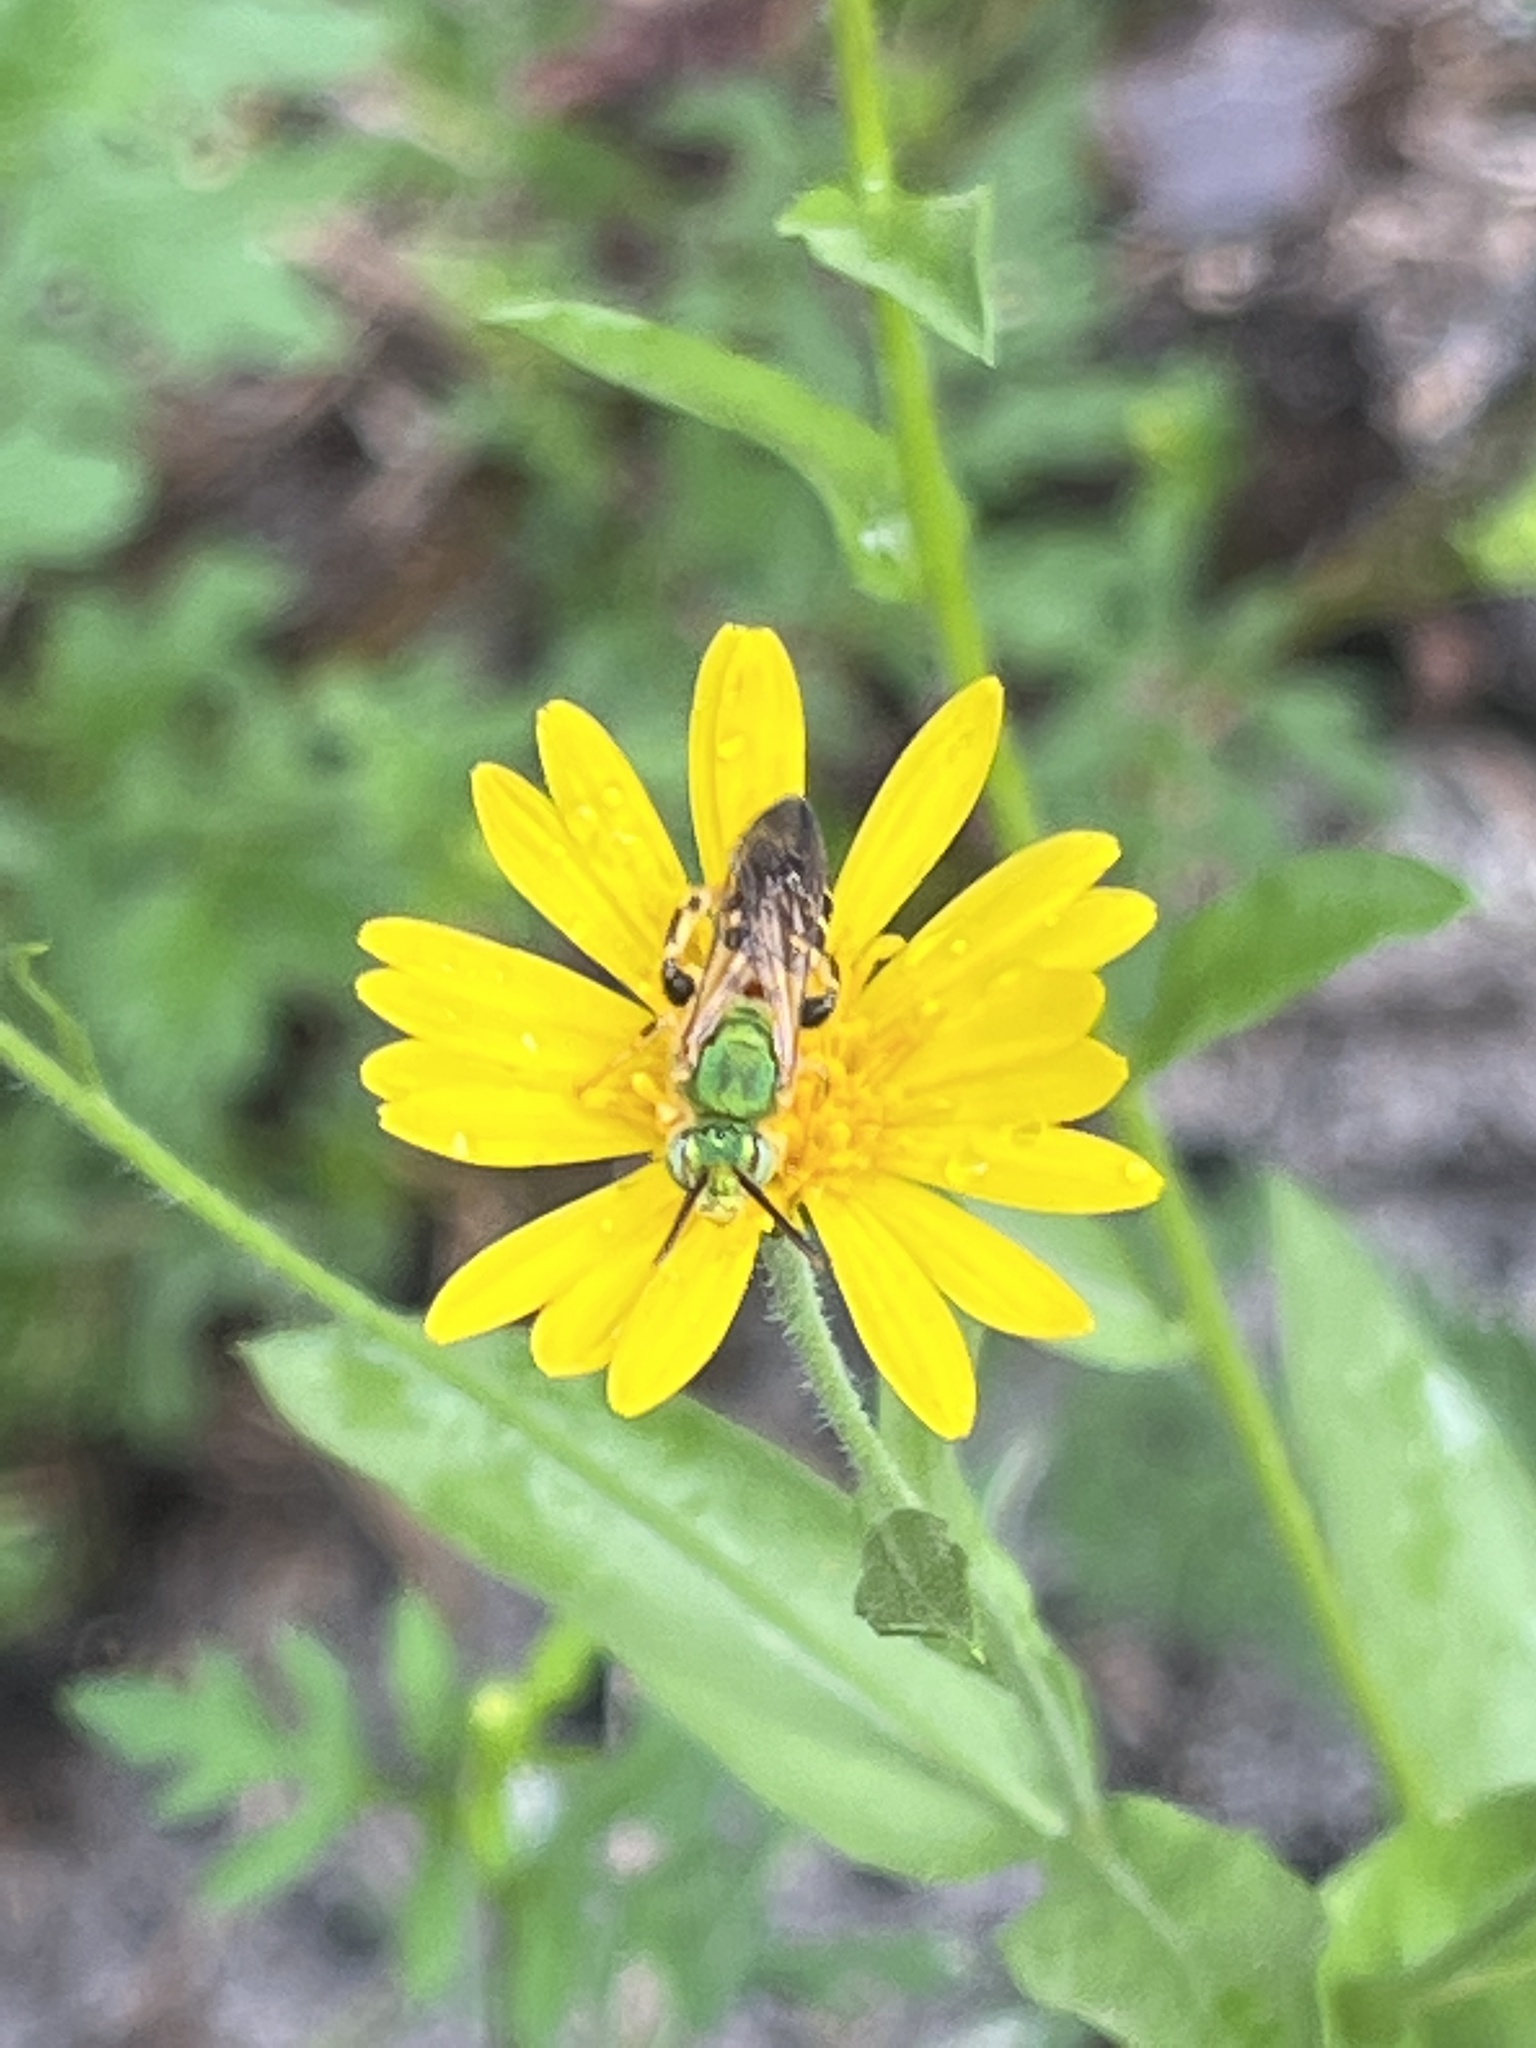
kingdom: Animalia
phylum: Arthropoda
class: Insecta
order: Hymenoptera
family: Halictidae
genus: Agapostemon
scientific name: Agapostemon splendens
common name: Brown-winged striped sweat bee
